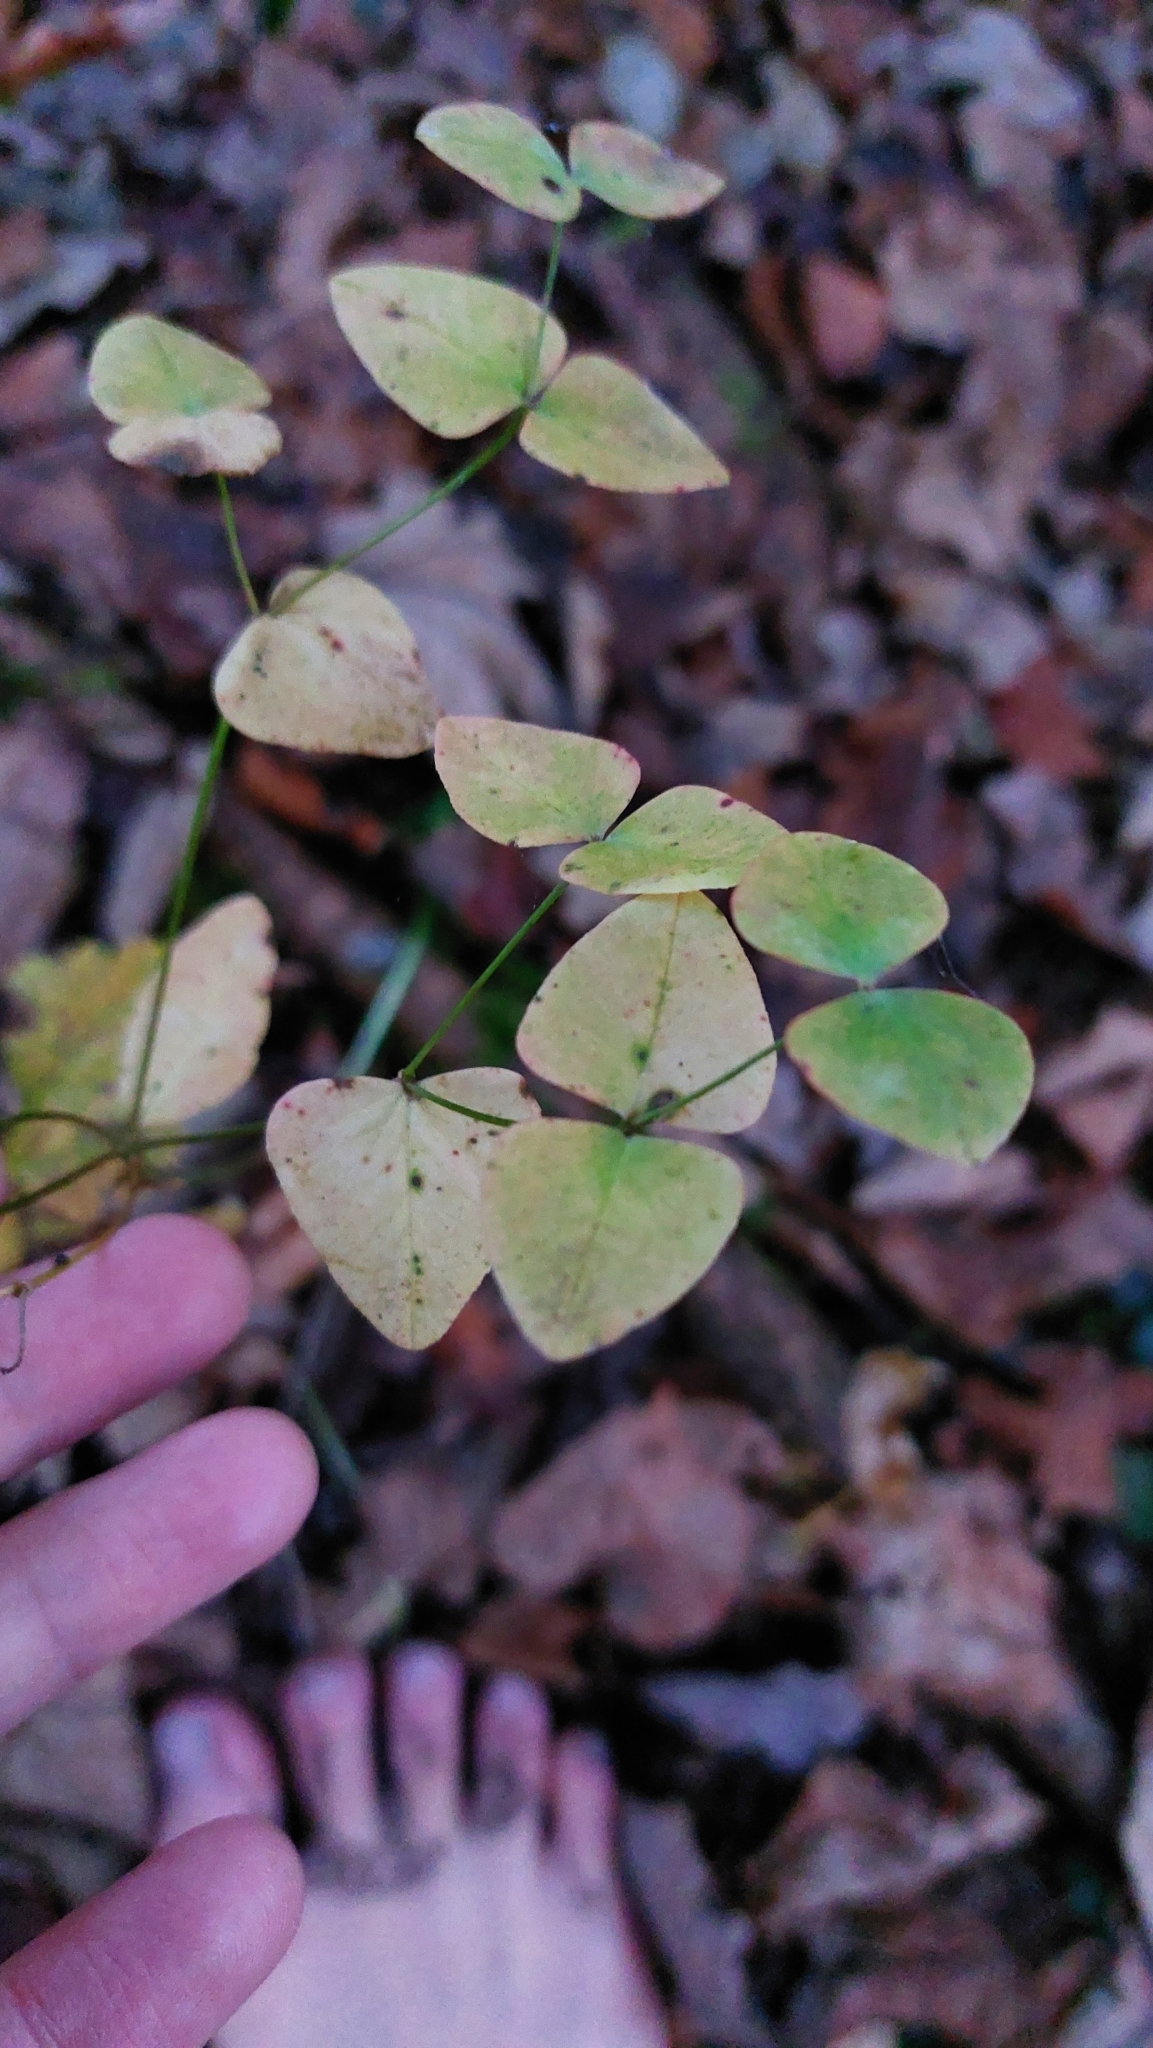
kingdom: Plantae
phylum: Tracheophyta
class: Magnoliopsida
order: Malpighiales
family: Euphorbiaceae
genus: Euphorbia
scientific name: Euphorbia dulcis
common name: Sweet spurge
